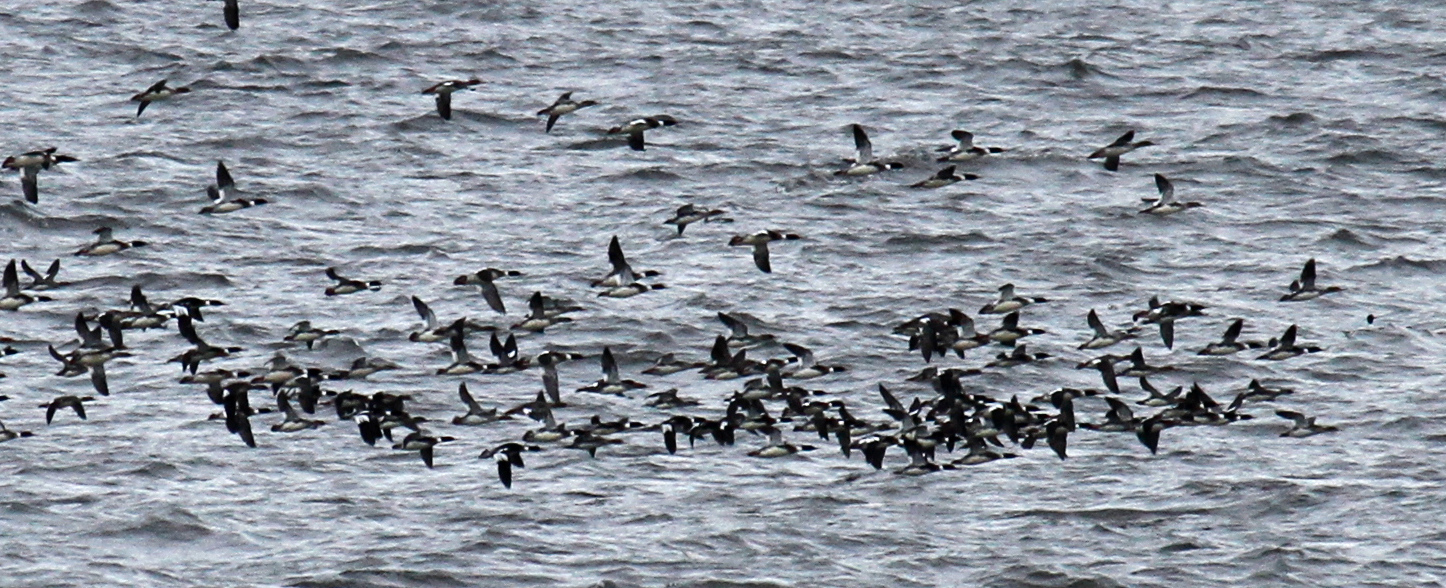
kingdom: Animalia
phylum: Chordata
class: Aves
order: Anseriformes
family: Anatidae
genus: Mergus
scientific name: Mergus serrator
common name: Red-breasted merganser
